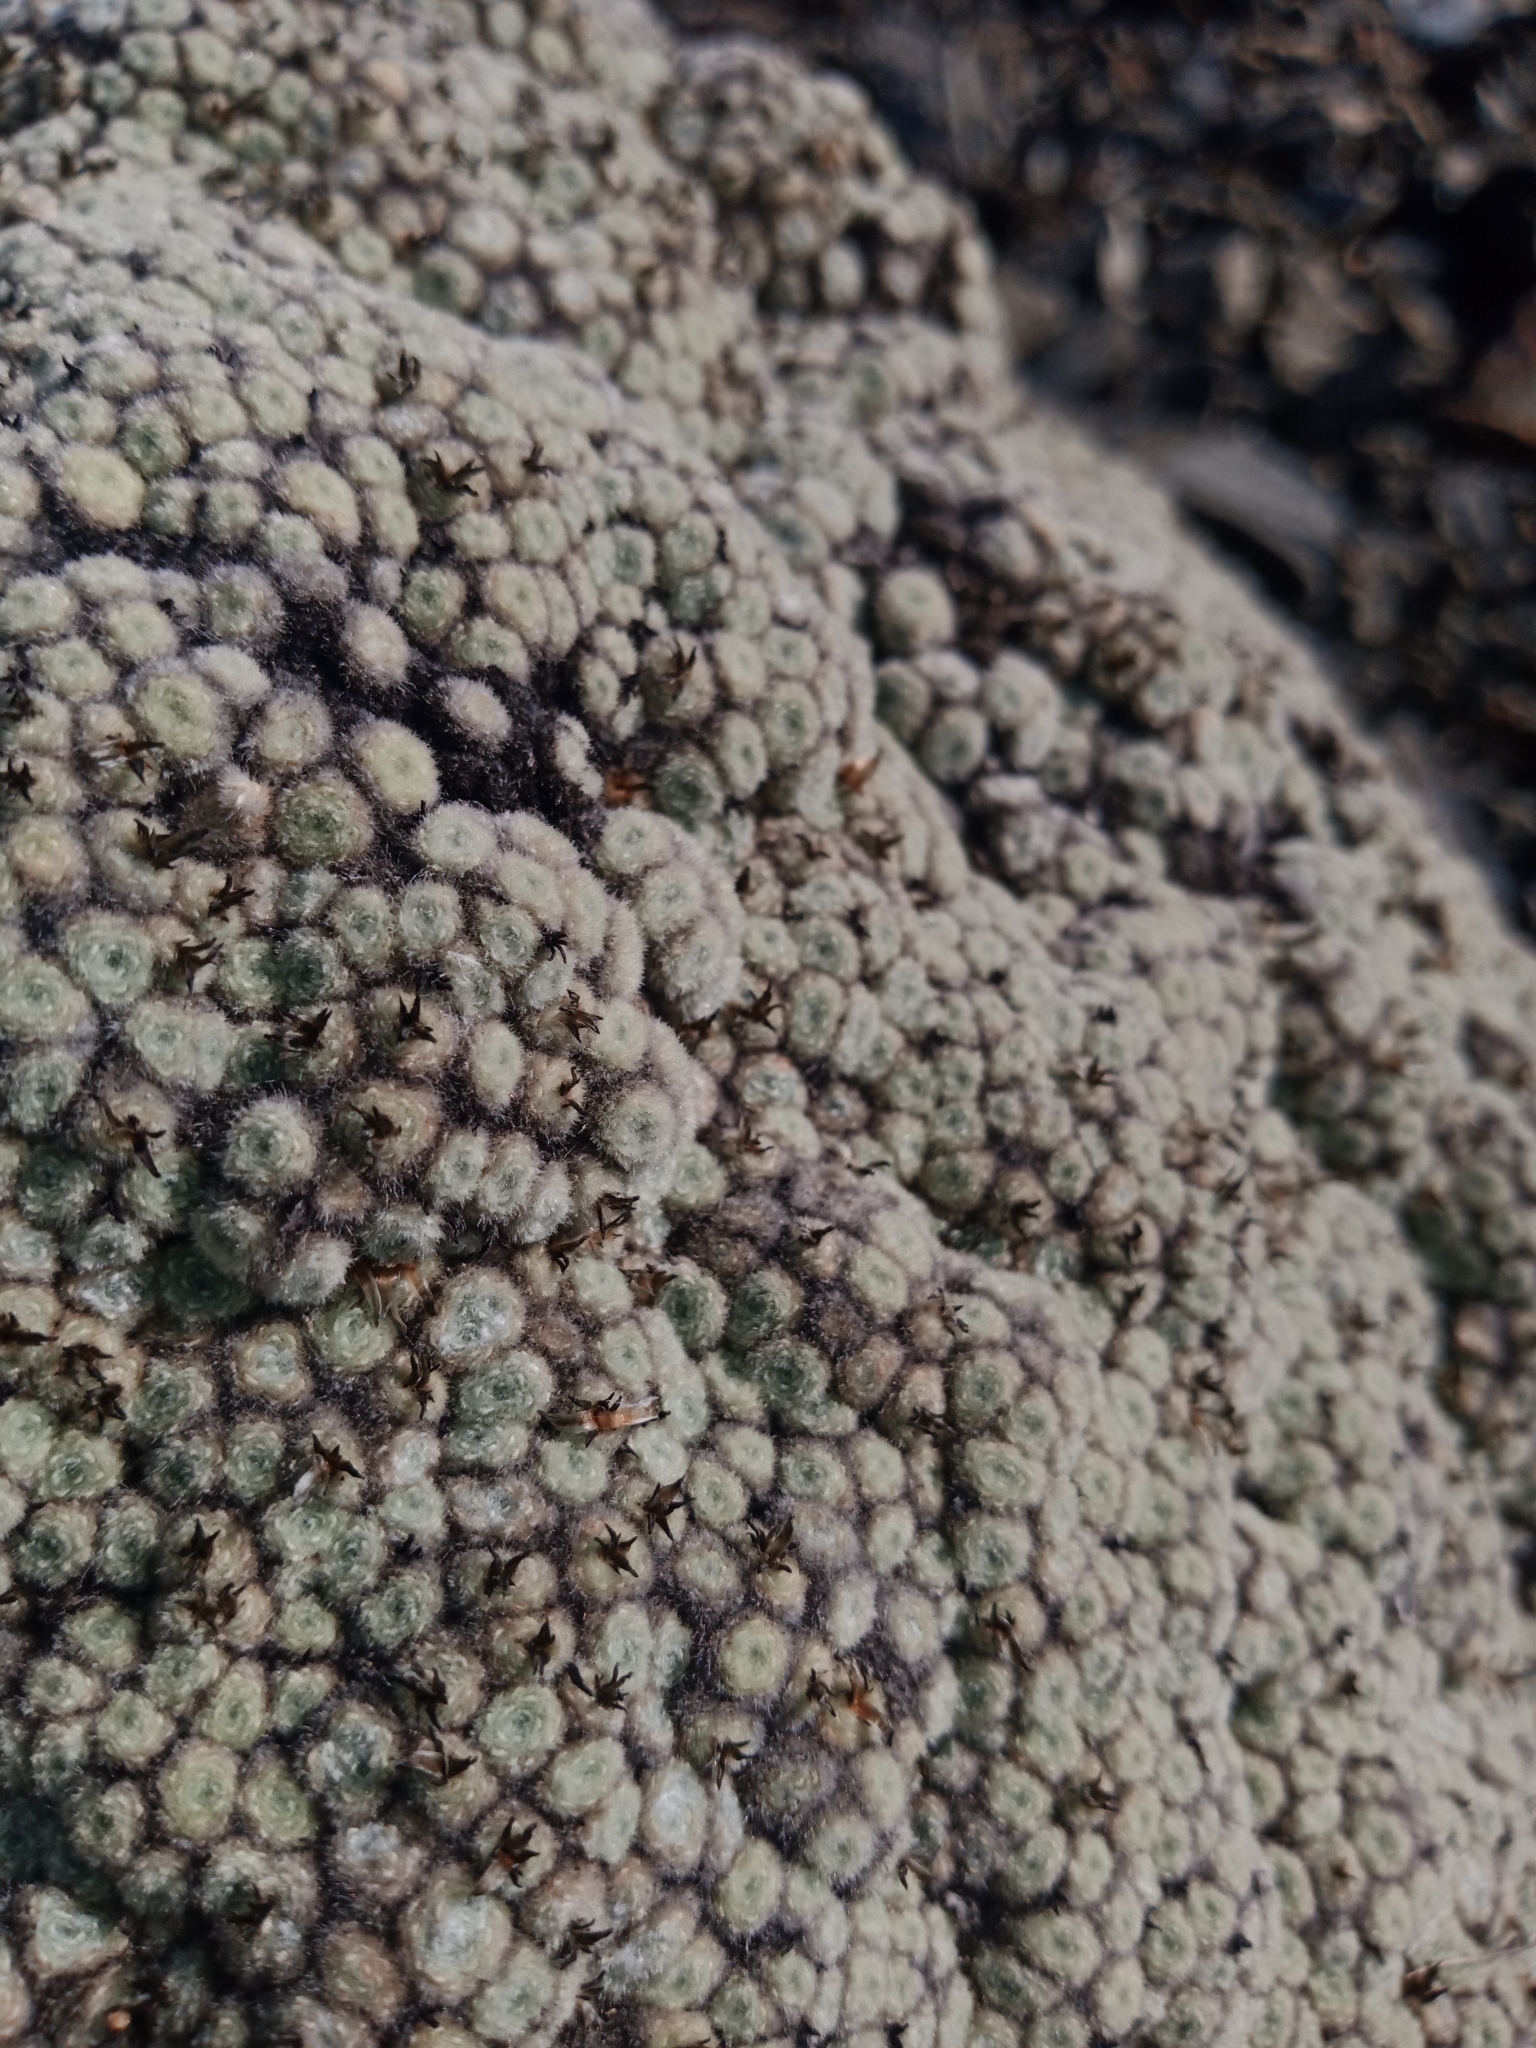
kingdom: Plantae
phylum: Tracheophyta
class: Magnoliopsida
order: Asterales
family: Asteraceae
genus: Raoulia
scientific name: Raoulia mammillaris
